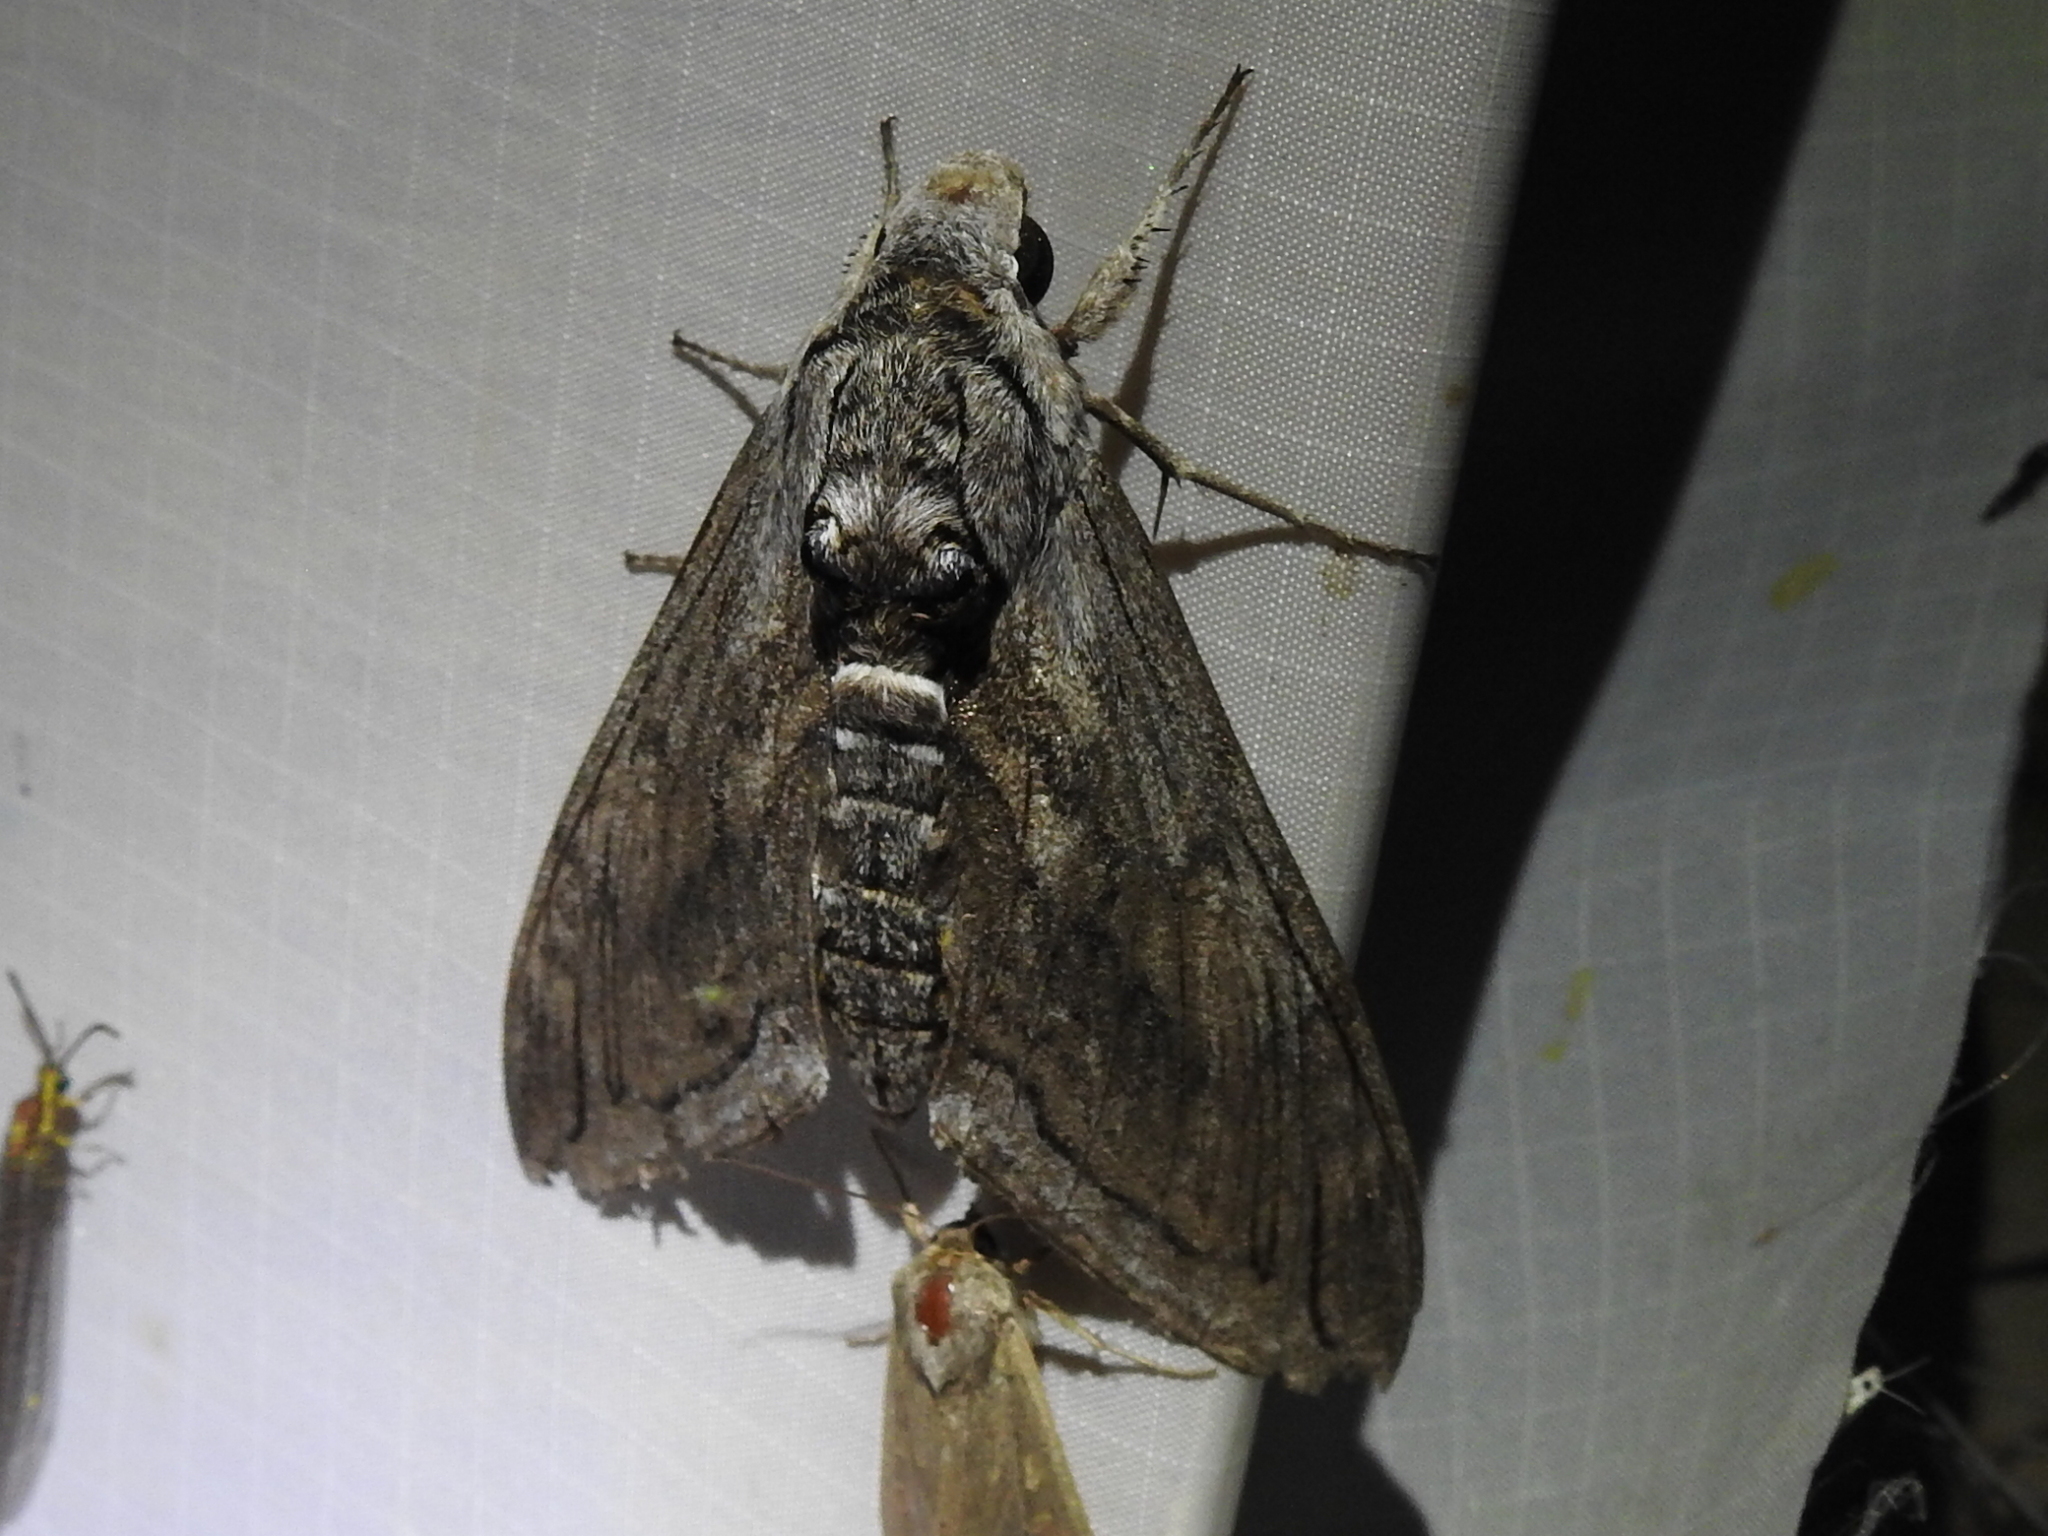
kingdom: Animalia
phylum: Arthropoda
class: Insecta
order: Lepidoptera
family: Sphingidae
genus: Manduca
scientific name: Manduca quinquemaculatus
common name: Five-spotted hawk-moth
